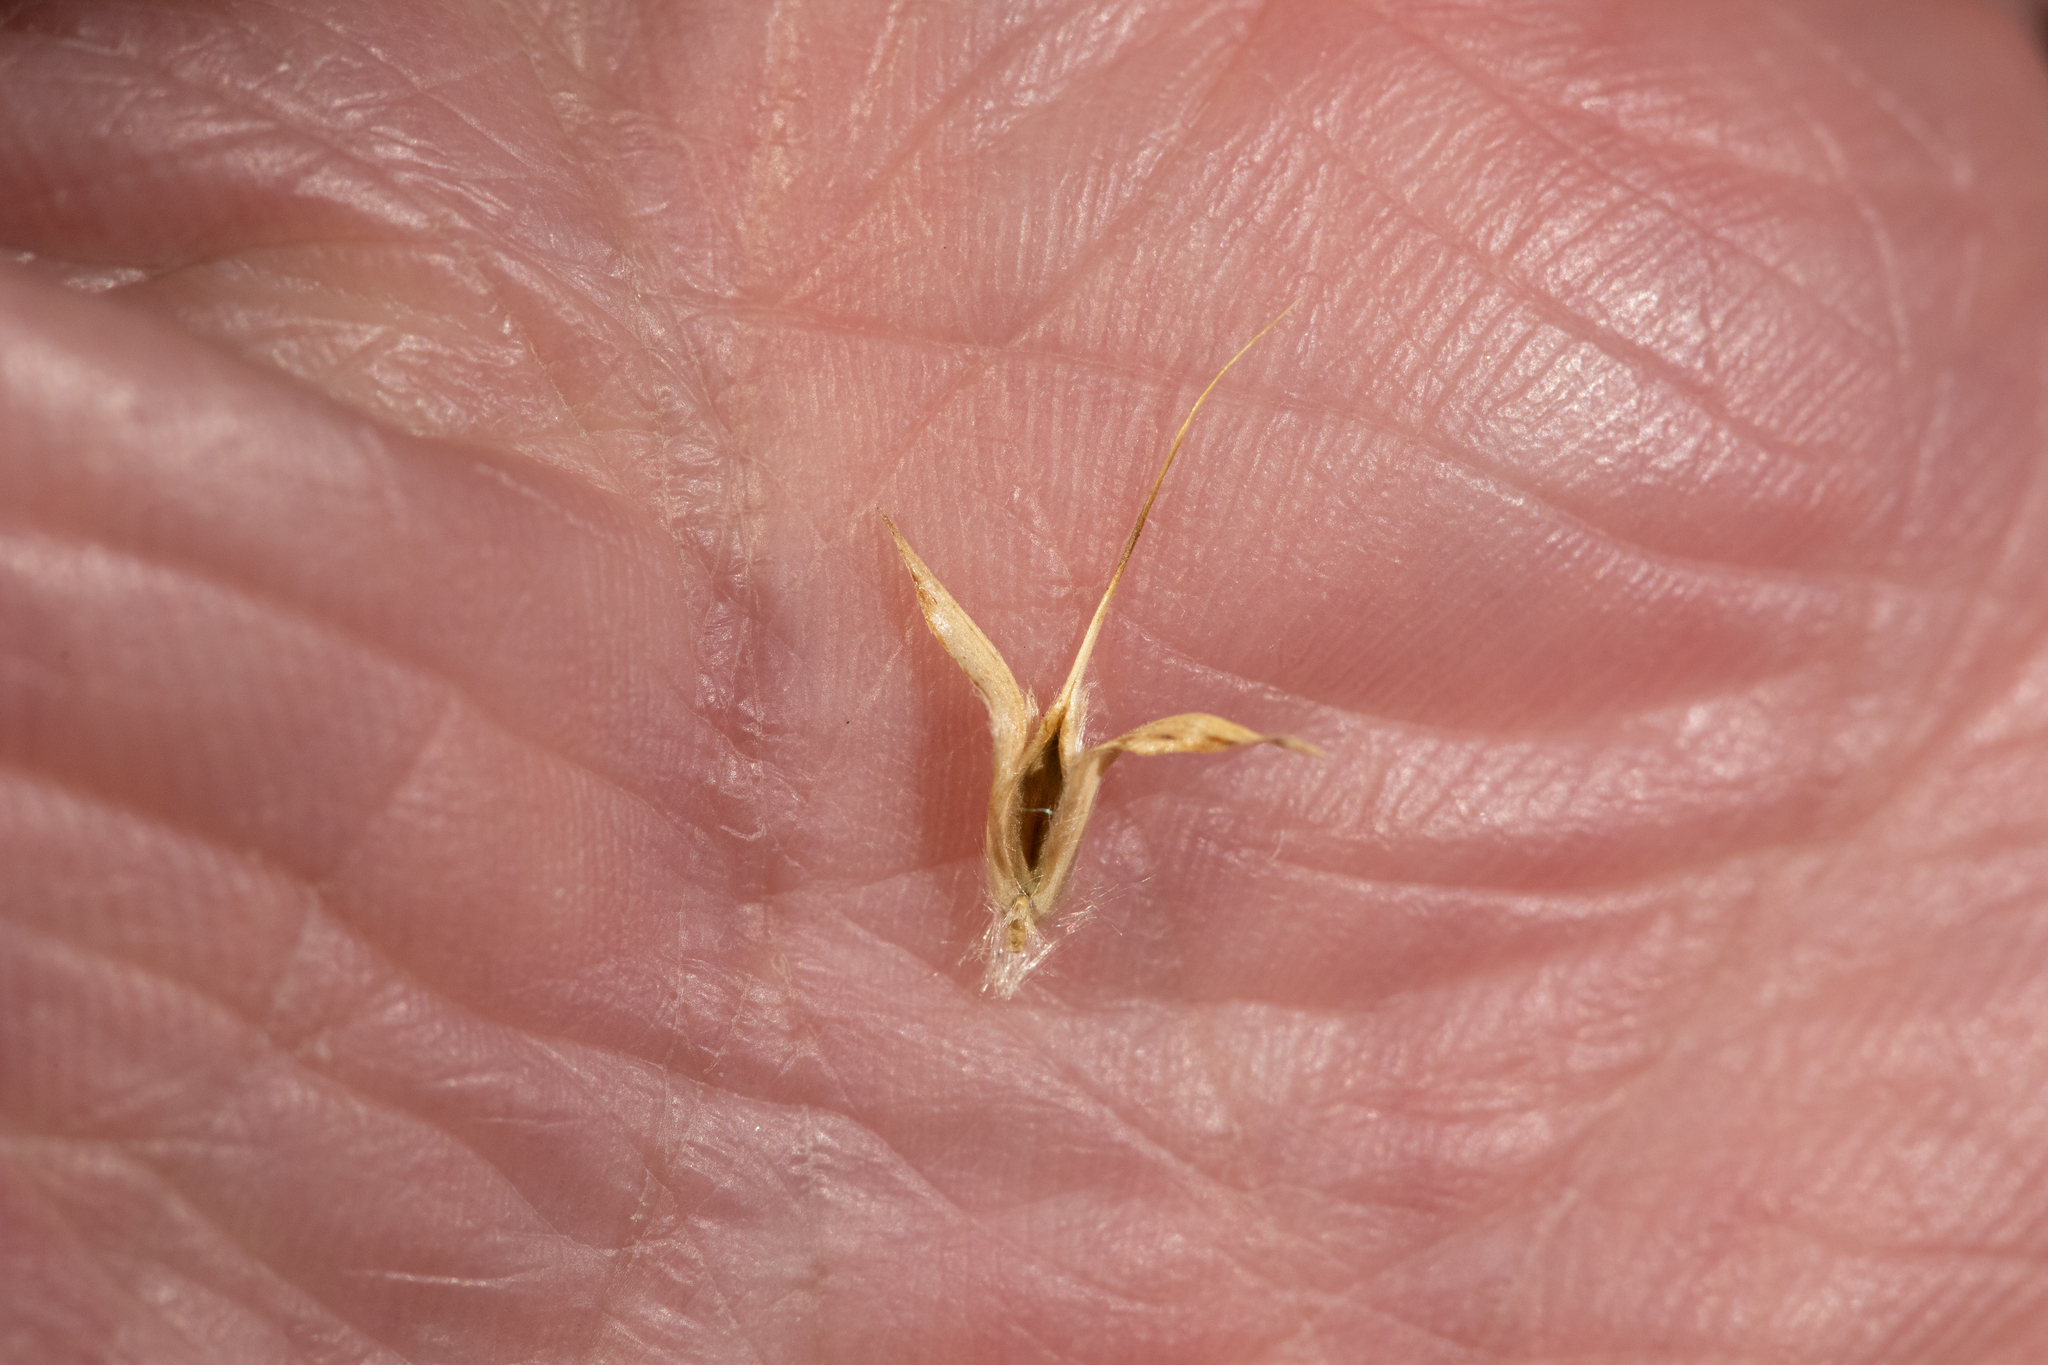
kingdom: Plantae
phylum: Tracheophyta
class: Liliopsida
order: Poales
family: Poaceae
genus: Astrebla
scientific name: Astrebla lappacea
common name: Curly mitchell grass
